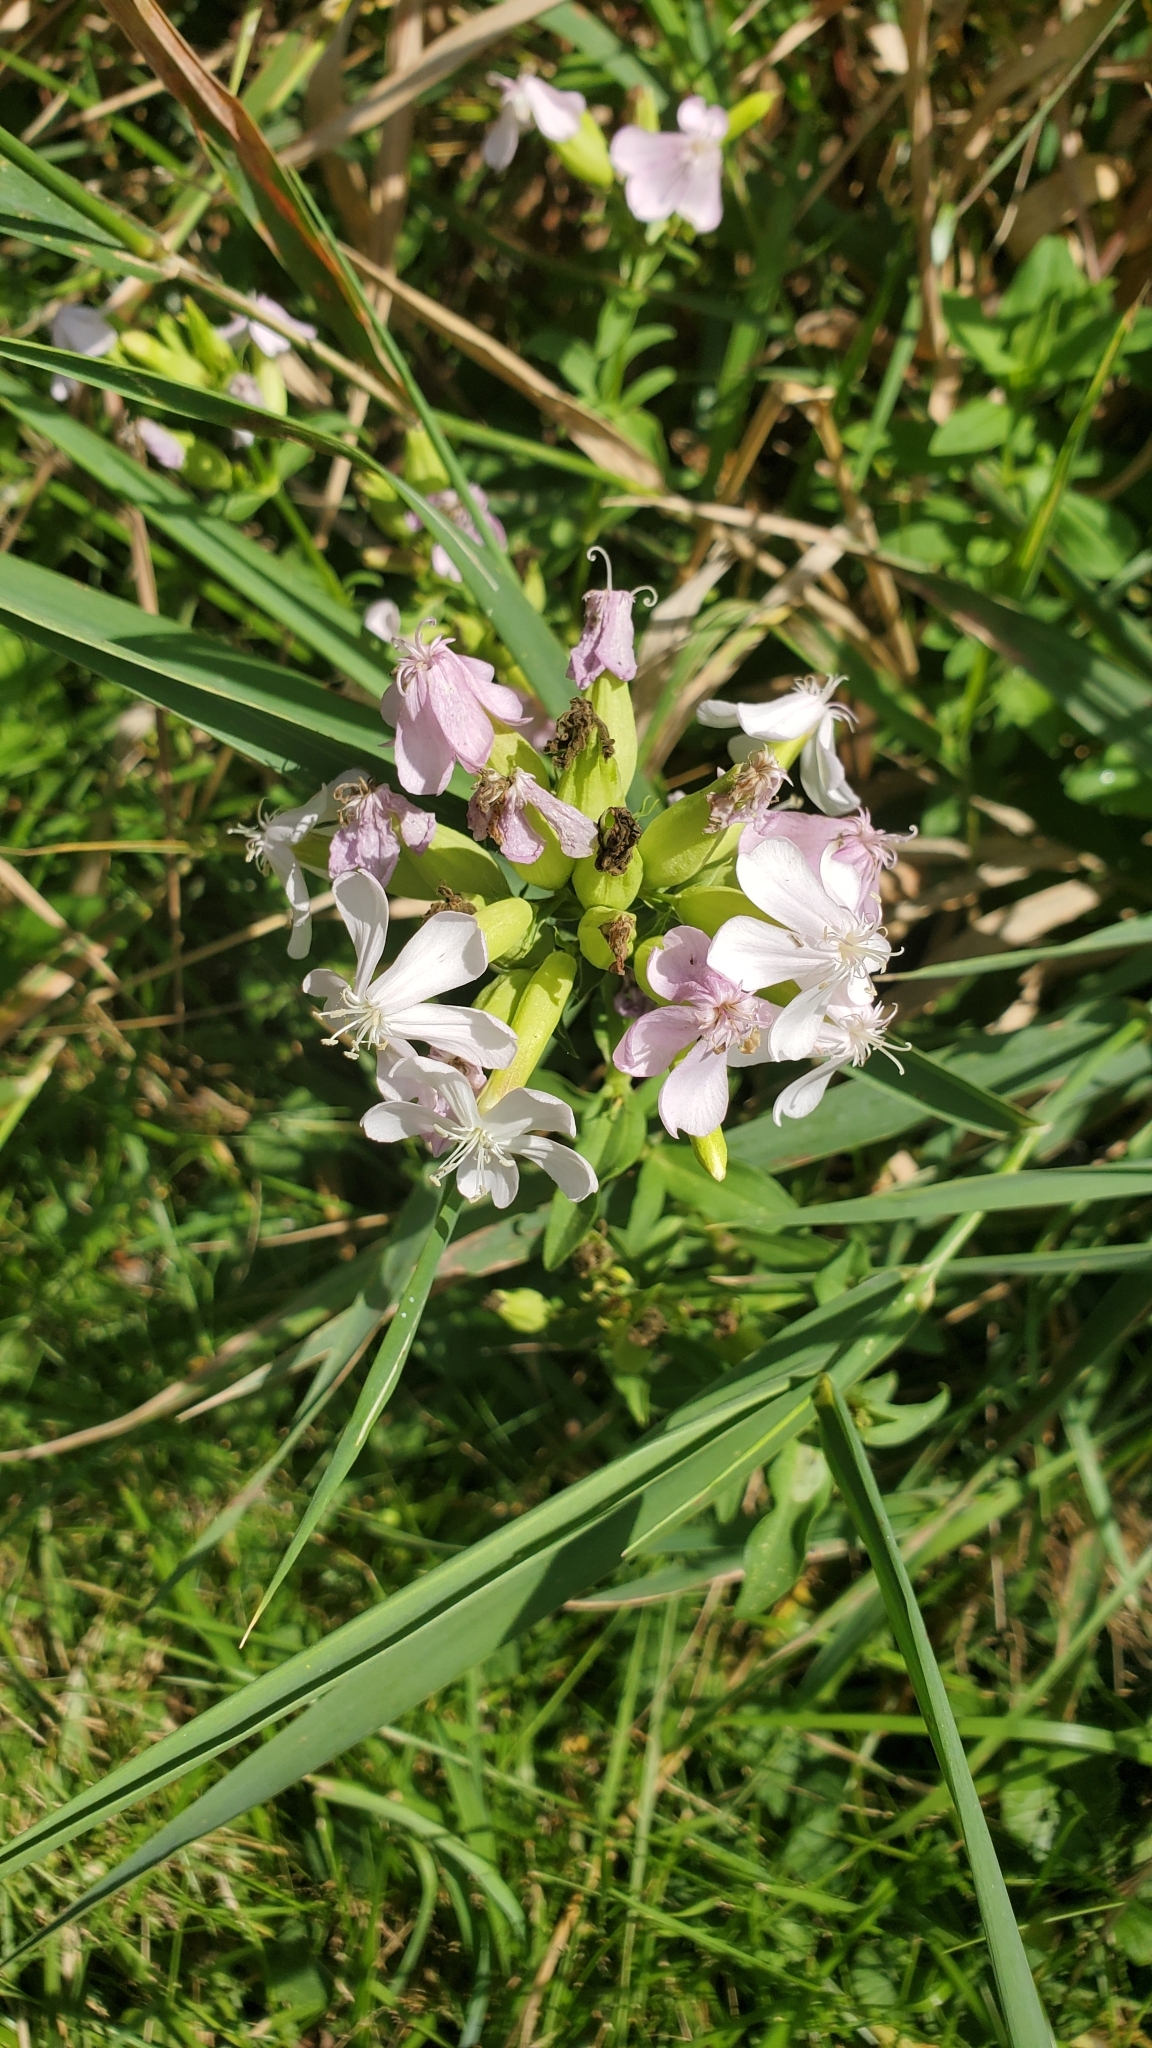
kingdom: Plantae
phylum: Tracheophyta
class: Magnoliopsida
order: Caryophyllales
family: Caryophyllaceae
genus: Saponaria
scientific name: Saponaria officinalis
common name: Soapwort
